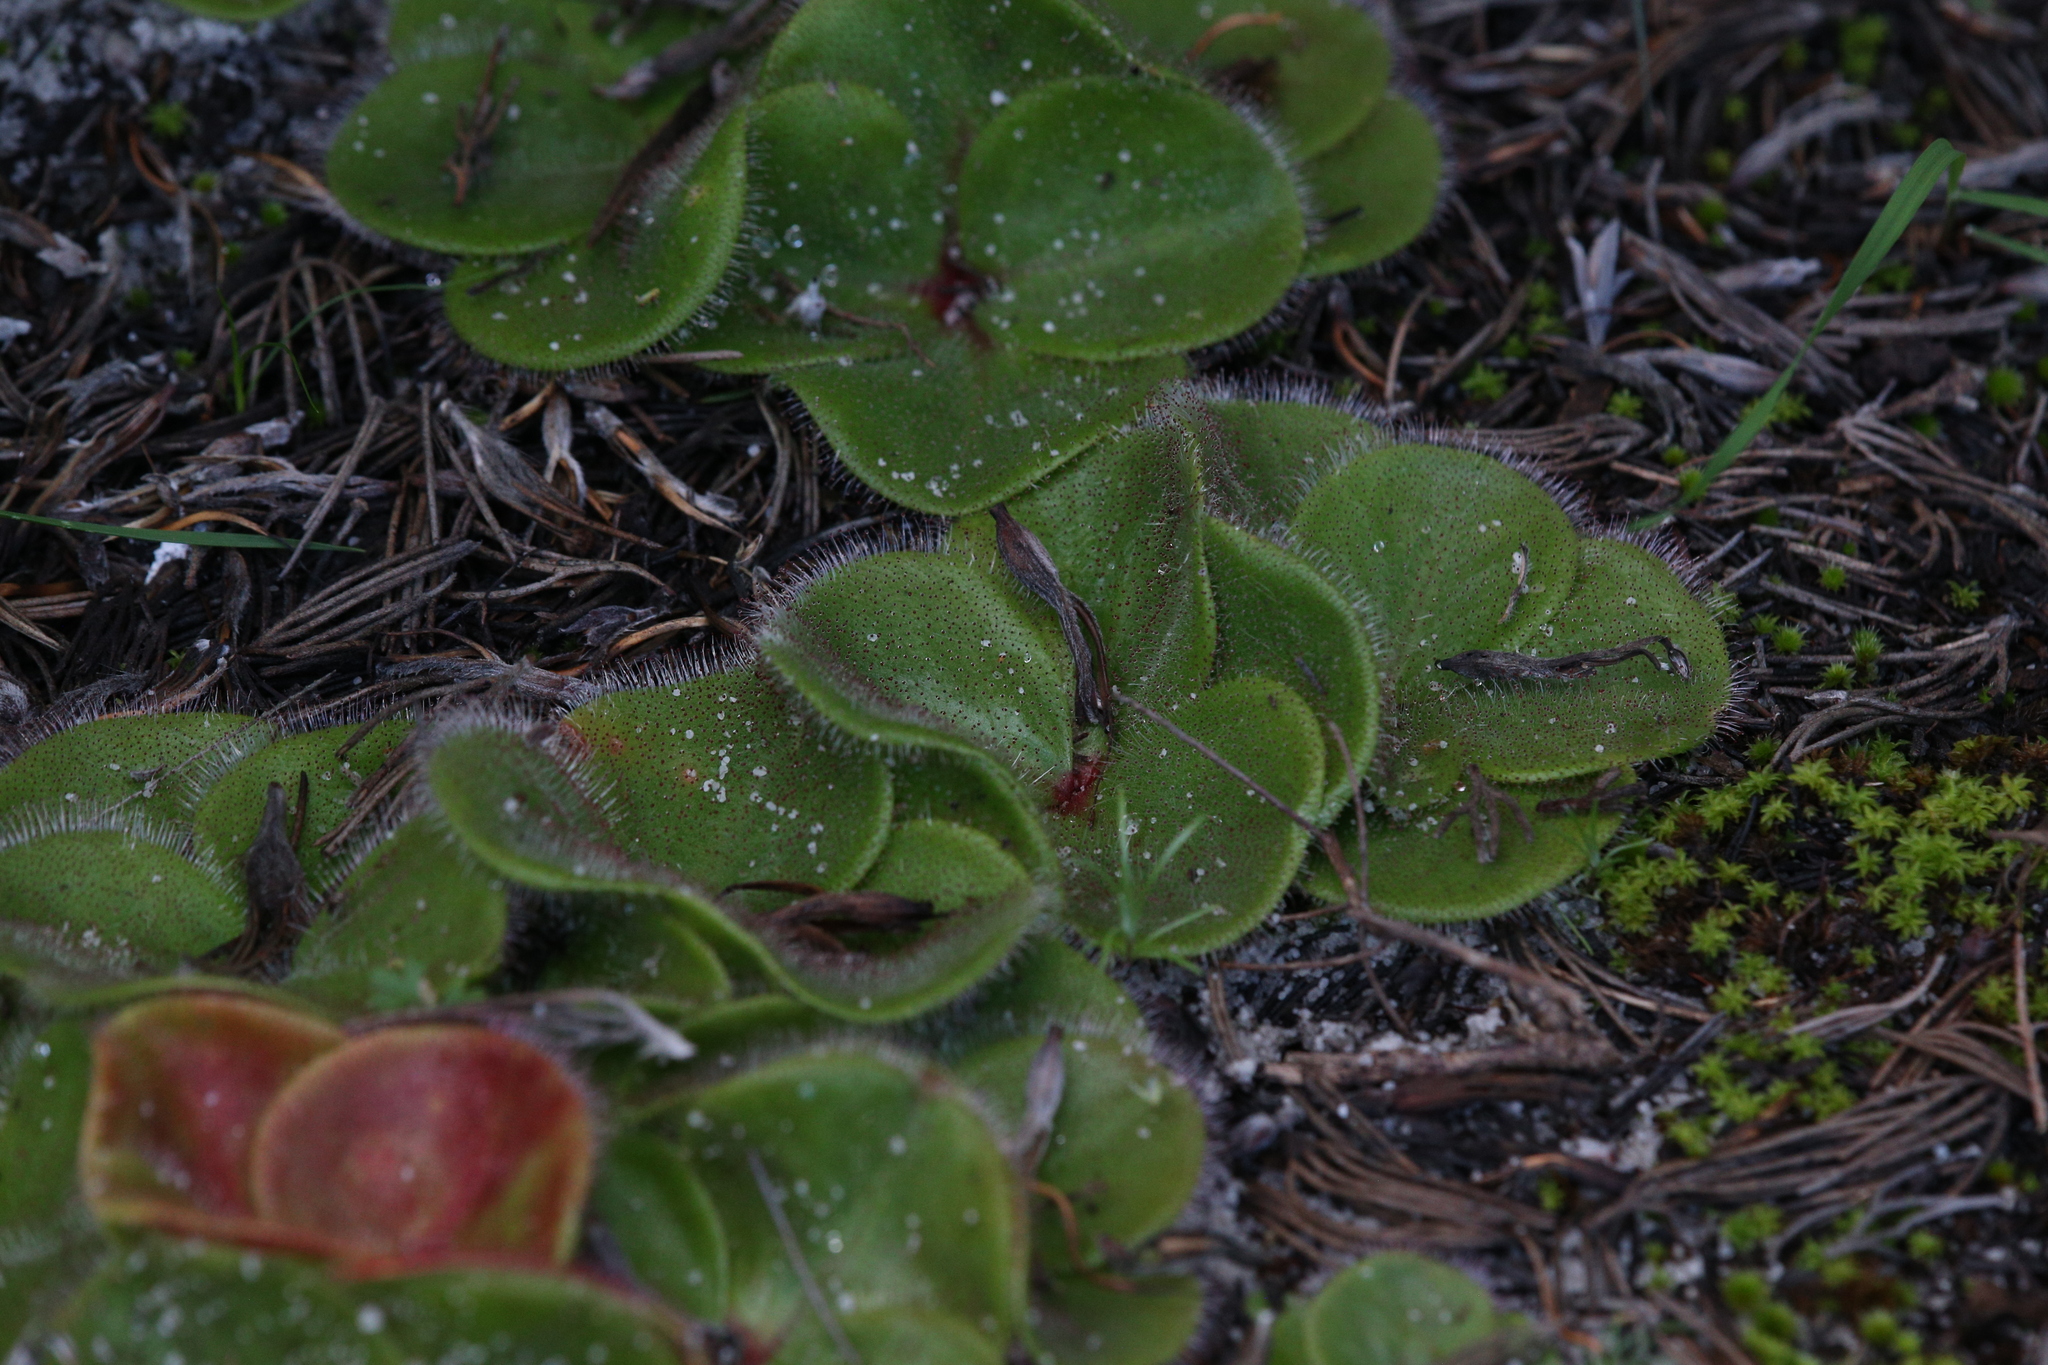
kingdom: Plantae
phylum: Tracheophyta
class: Magnoliopsida
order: Caryophyllales
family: Droseraceae
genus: Drosera
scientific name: Drosera erythrorhiza
